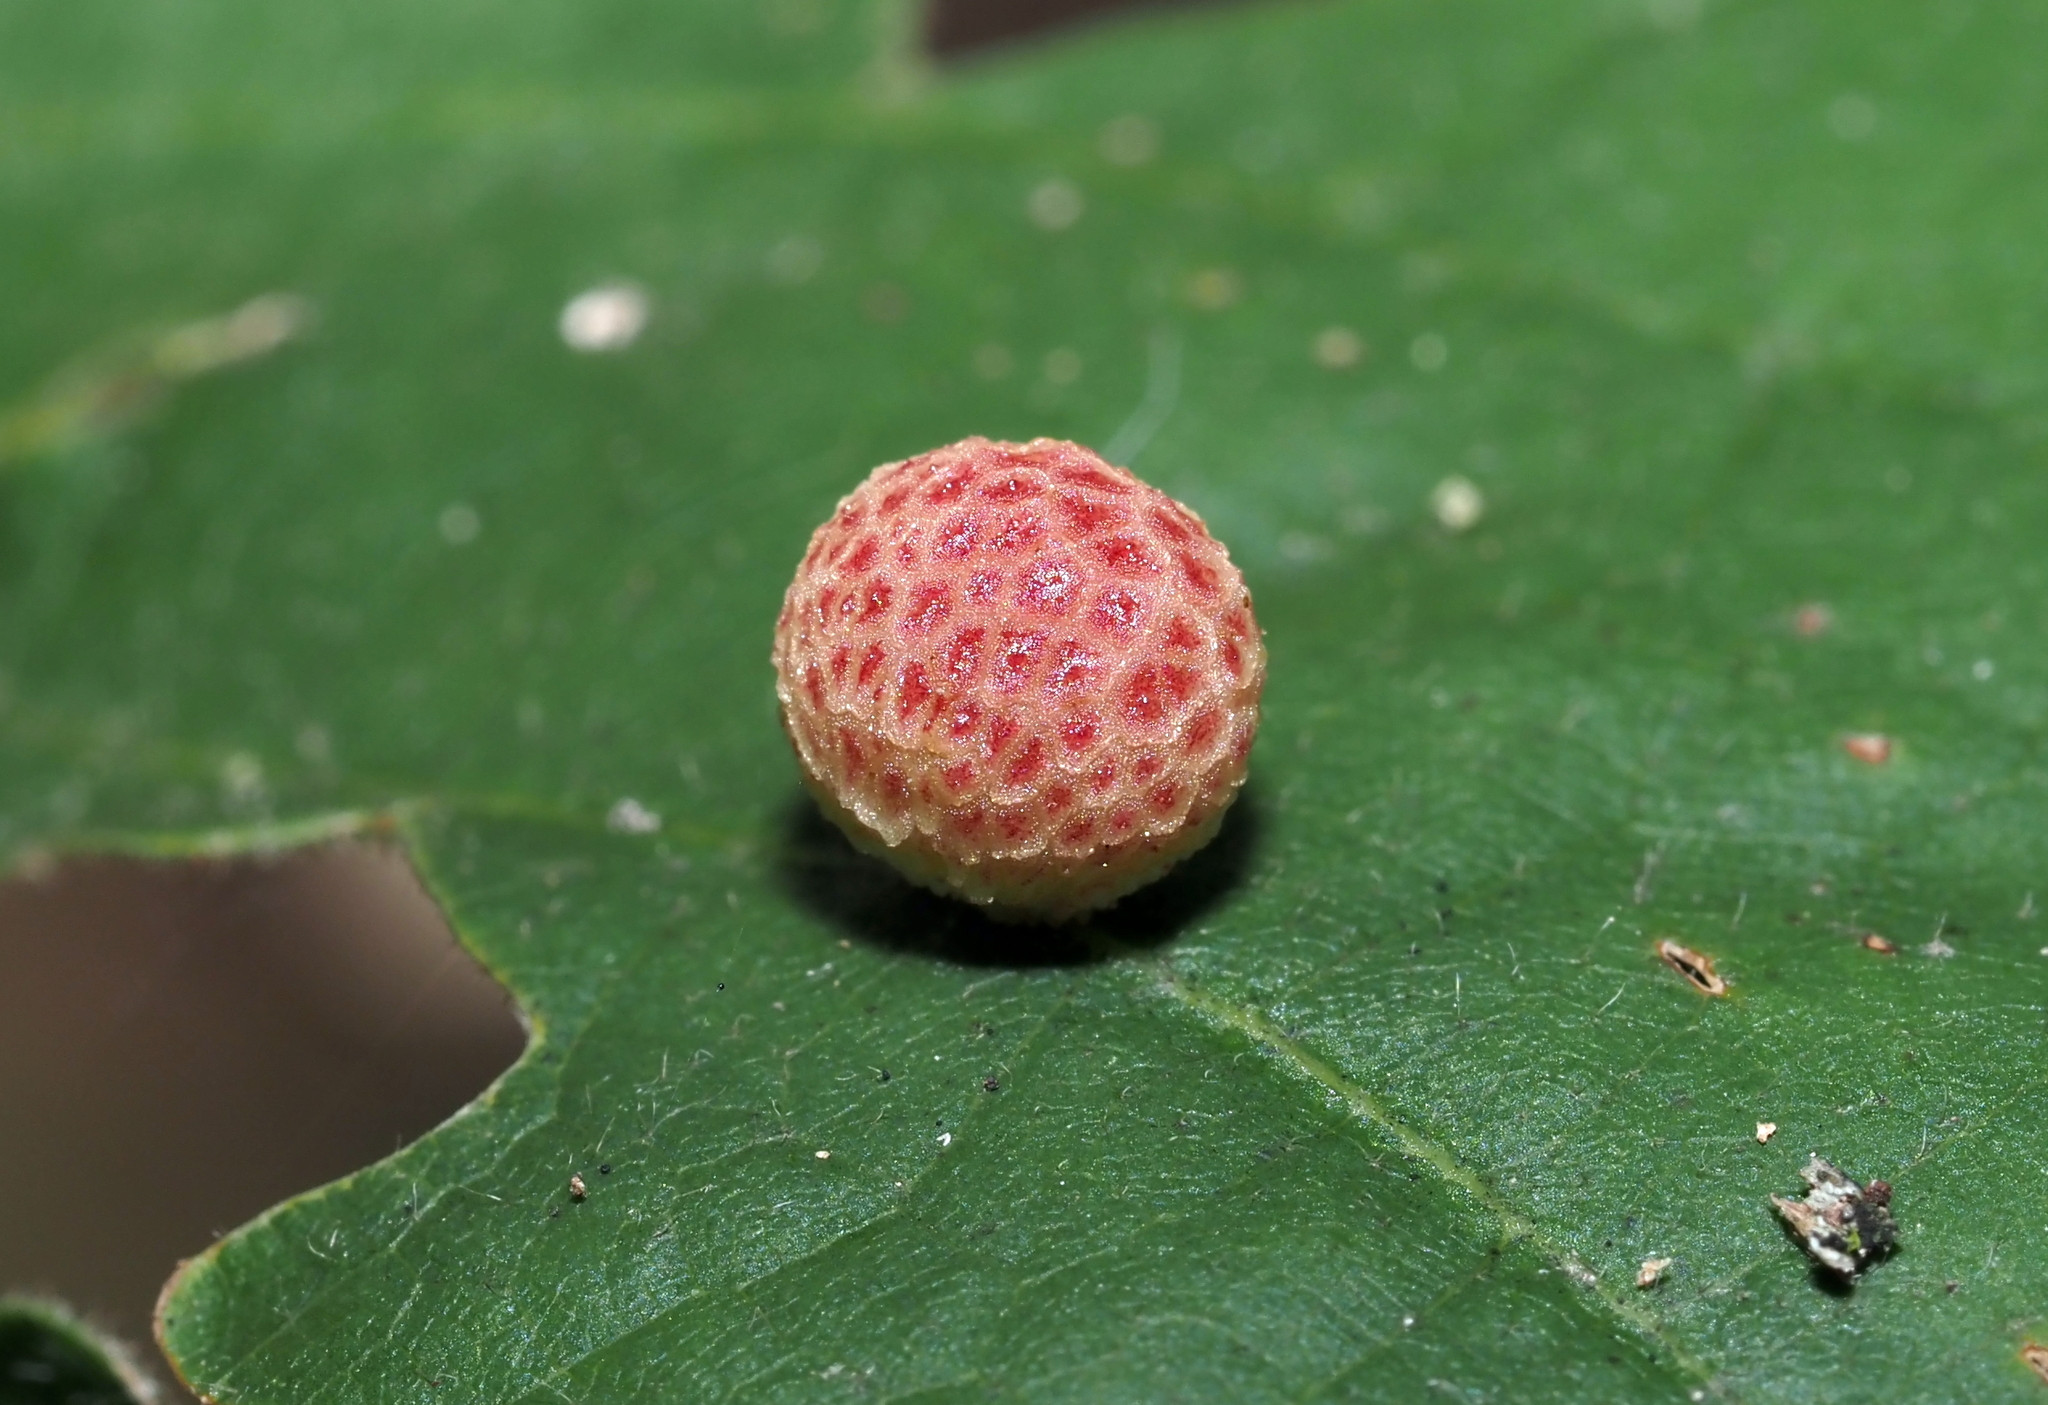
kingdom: Animalia
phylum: Arthropoda
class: Insecta
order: Hymenoptera
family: Cynipidae
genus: Acraspis
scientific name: Acraspis quercushirta
